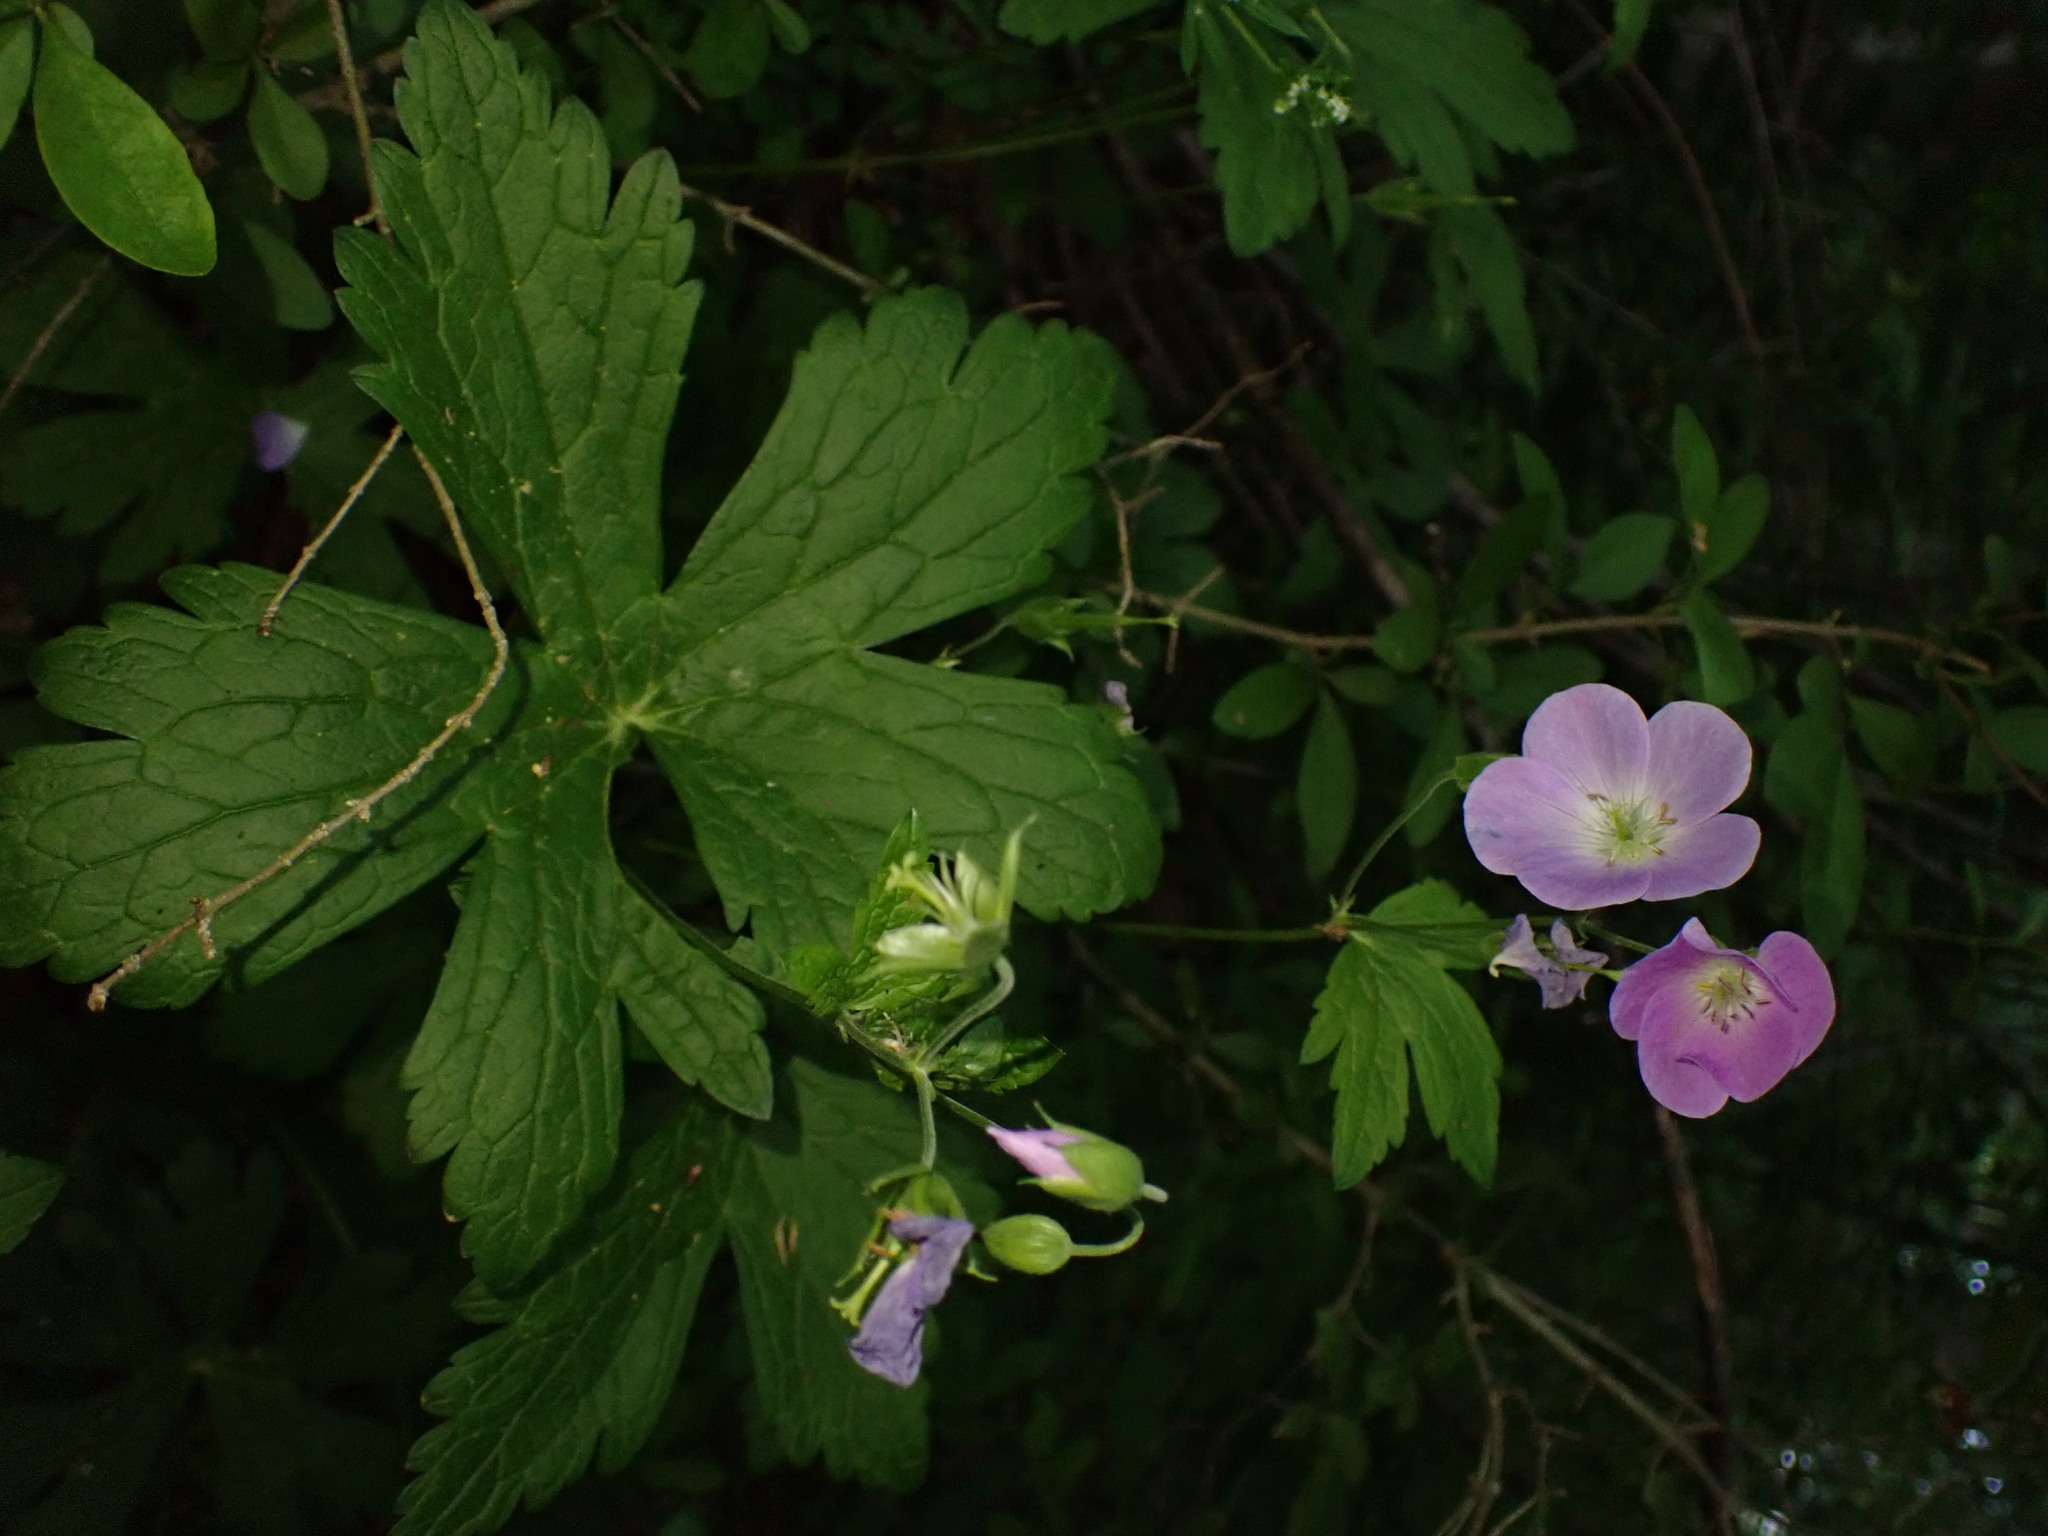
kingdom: Plantae
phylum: Tracheophyta
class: Magnoliopsida
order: Geraniales
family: Geraniaceae
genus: Geranium
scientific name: Geranium maculatum
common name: Spotted geranium
